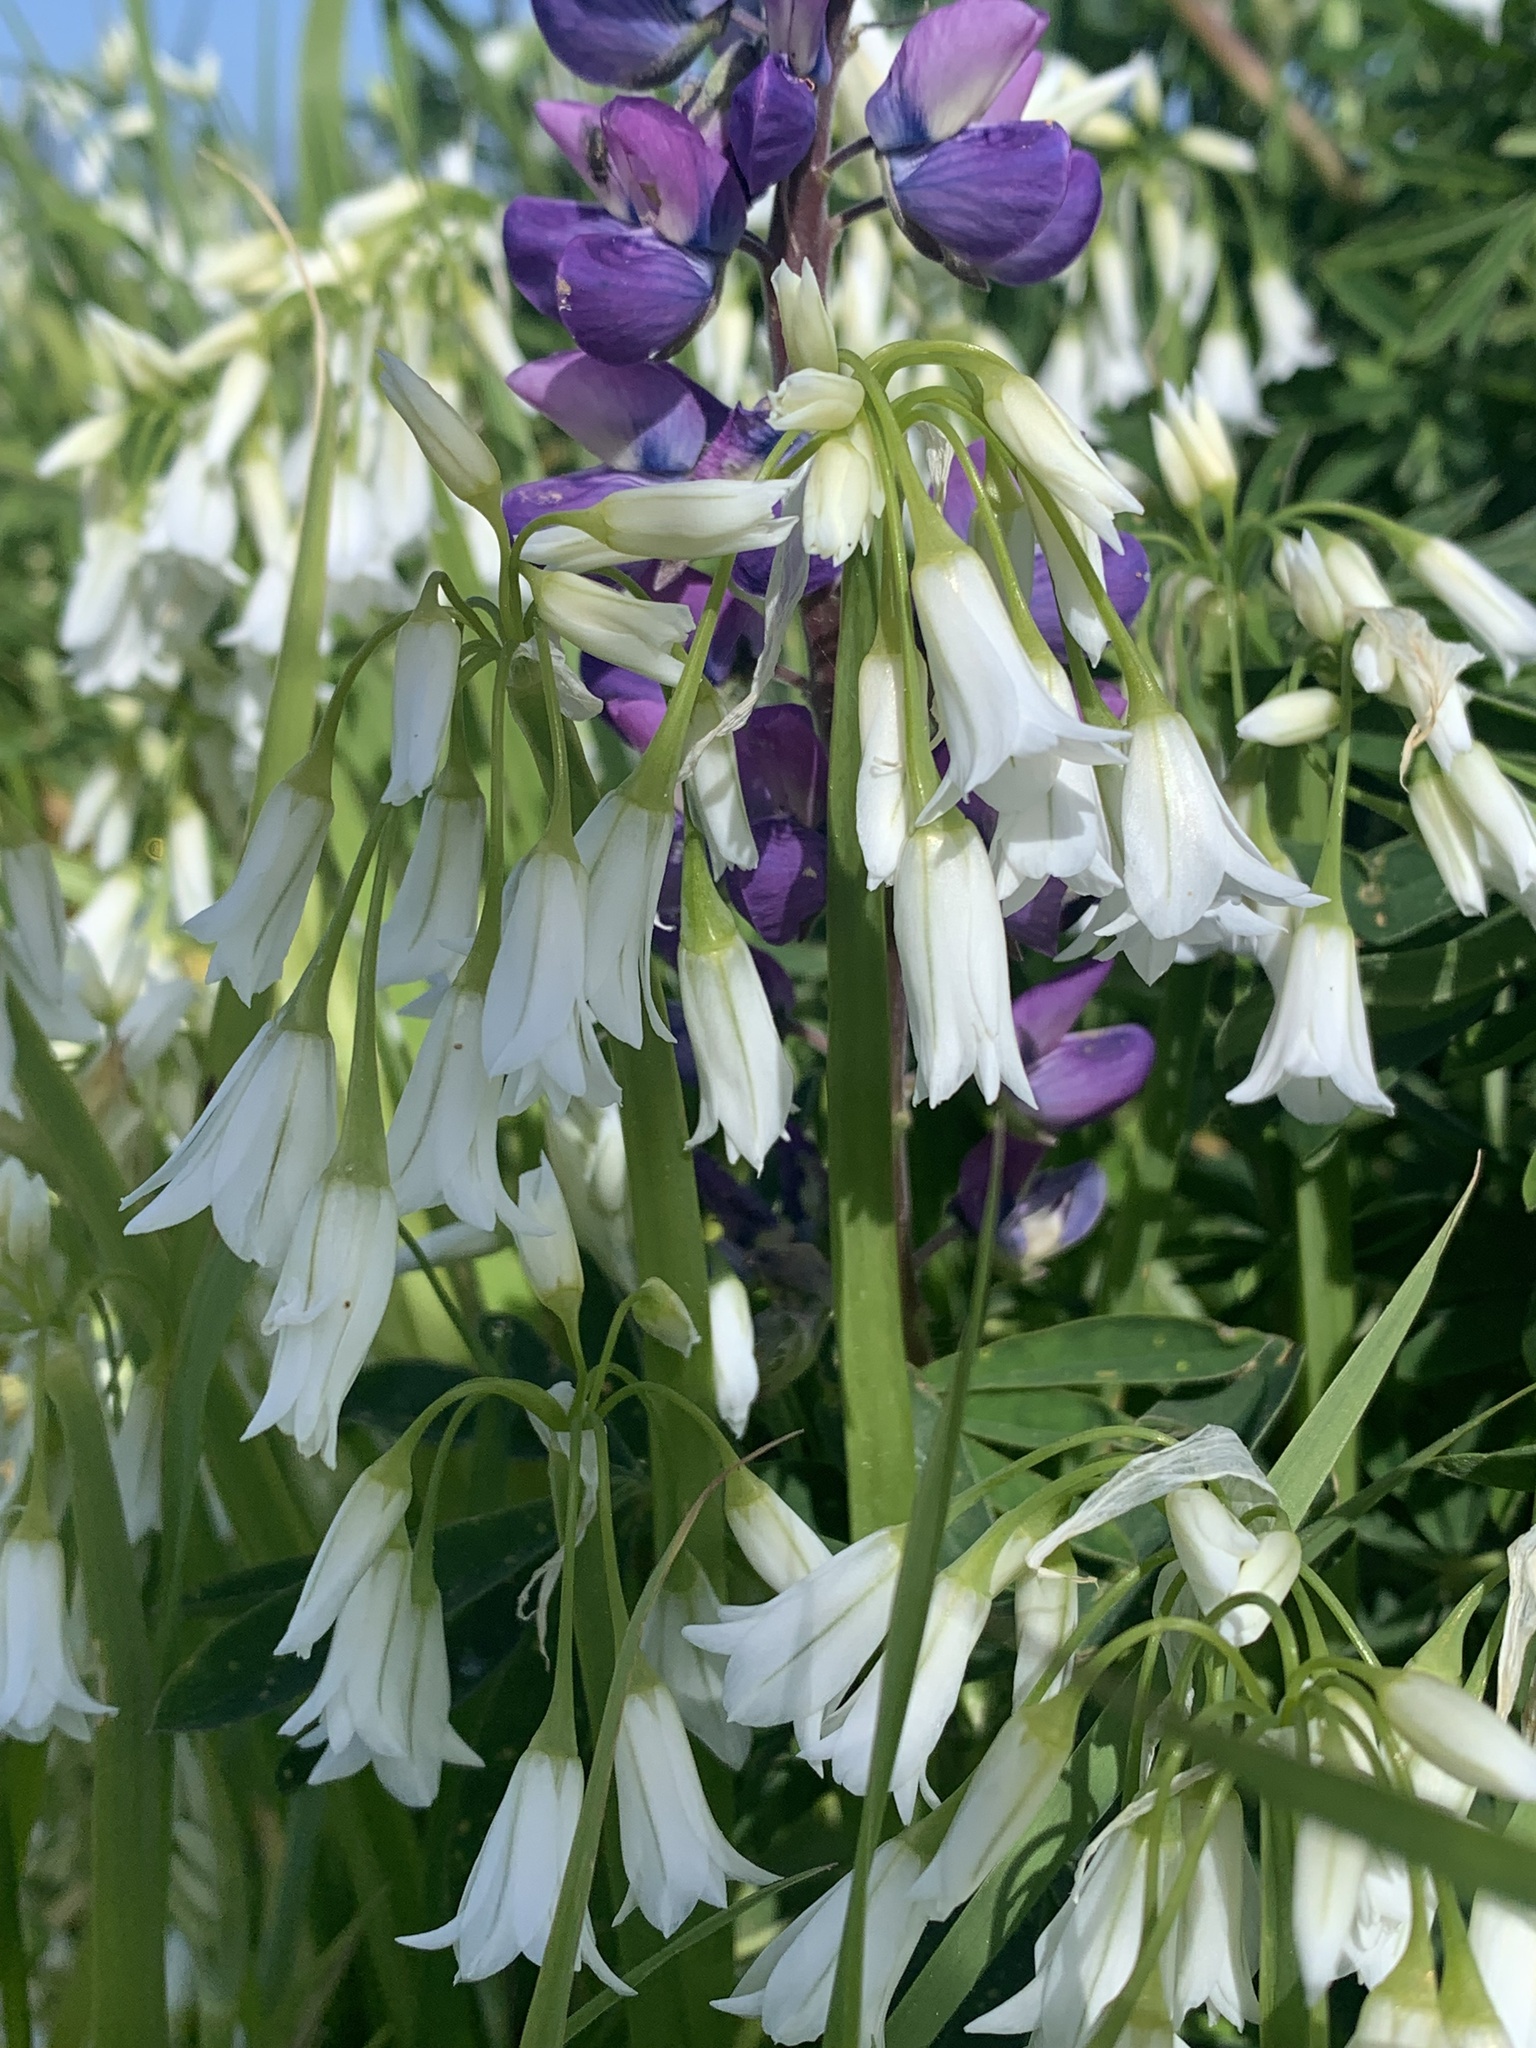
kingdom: Plantae
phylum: Tracheophyta
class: Liliopsida
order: Asparagales
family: Amaryllidaceae
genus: Allium
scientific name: Allium triquetrum
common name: Three-cornered garlic
